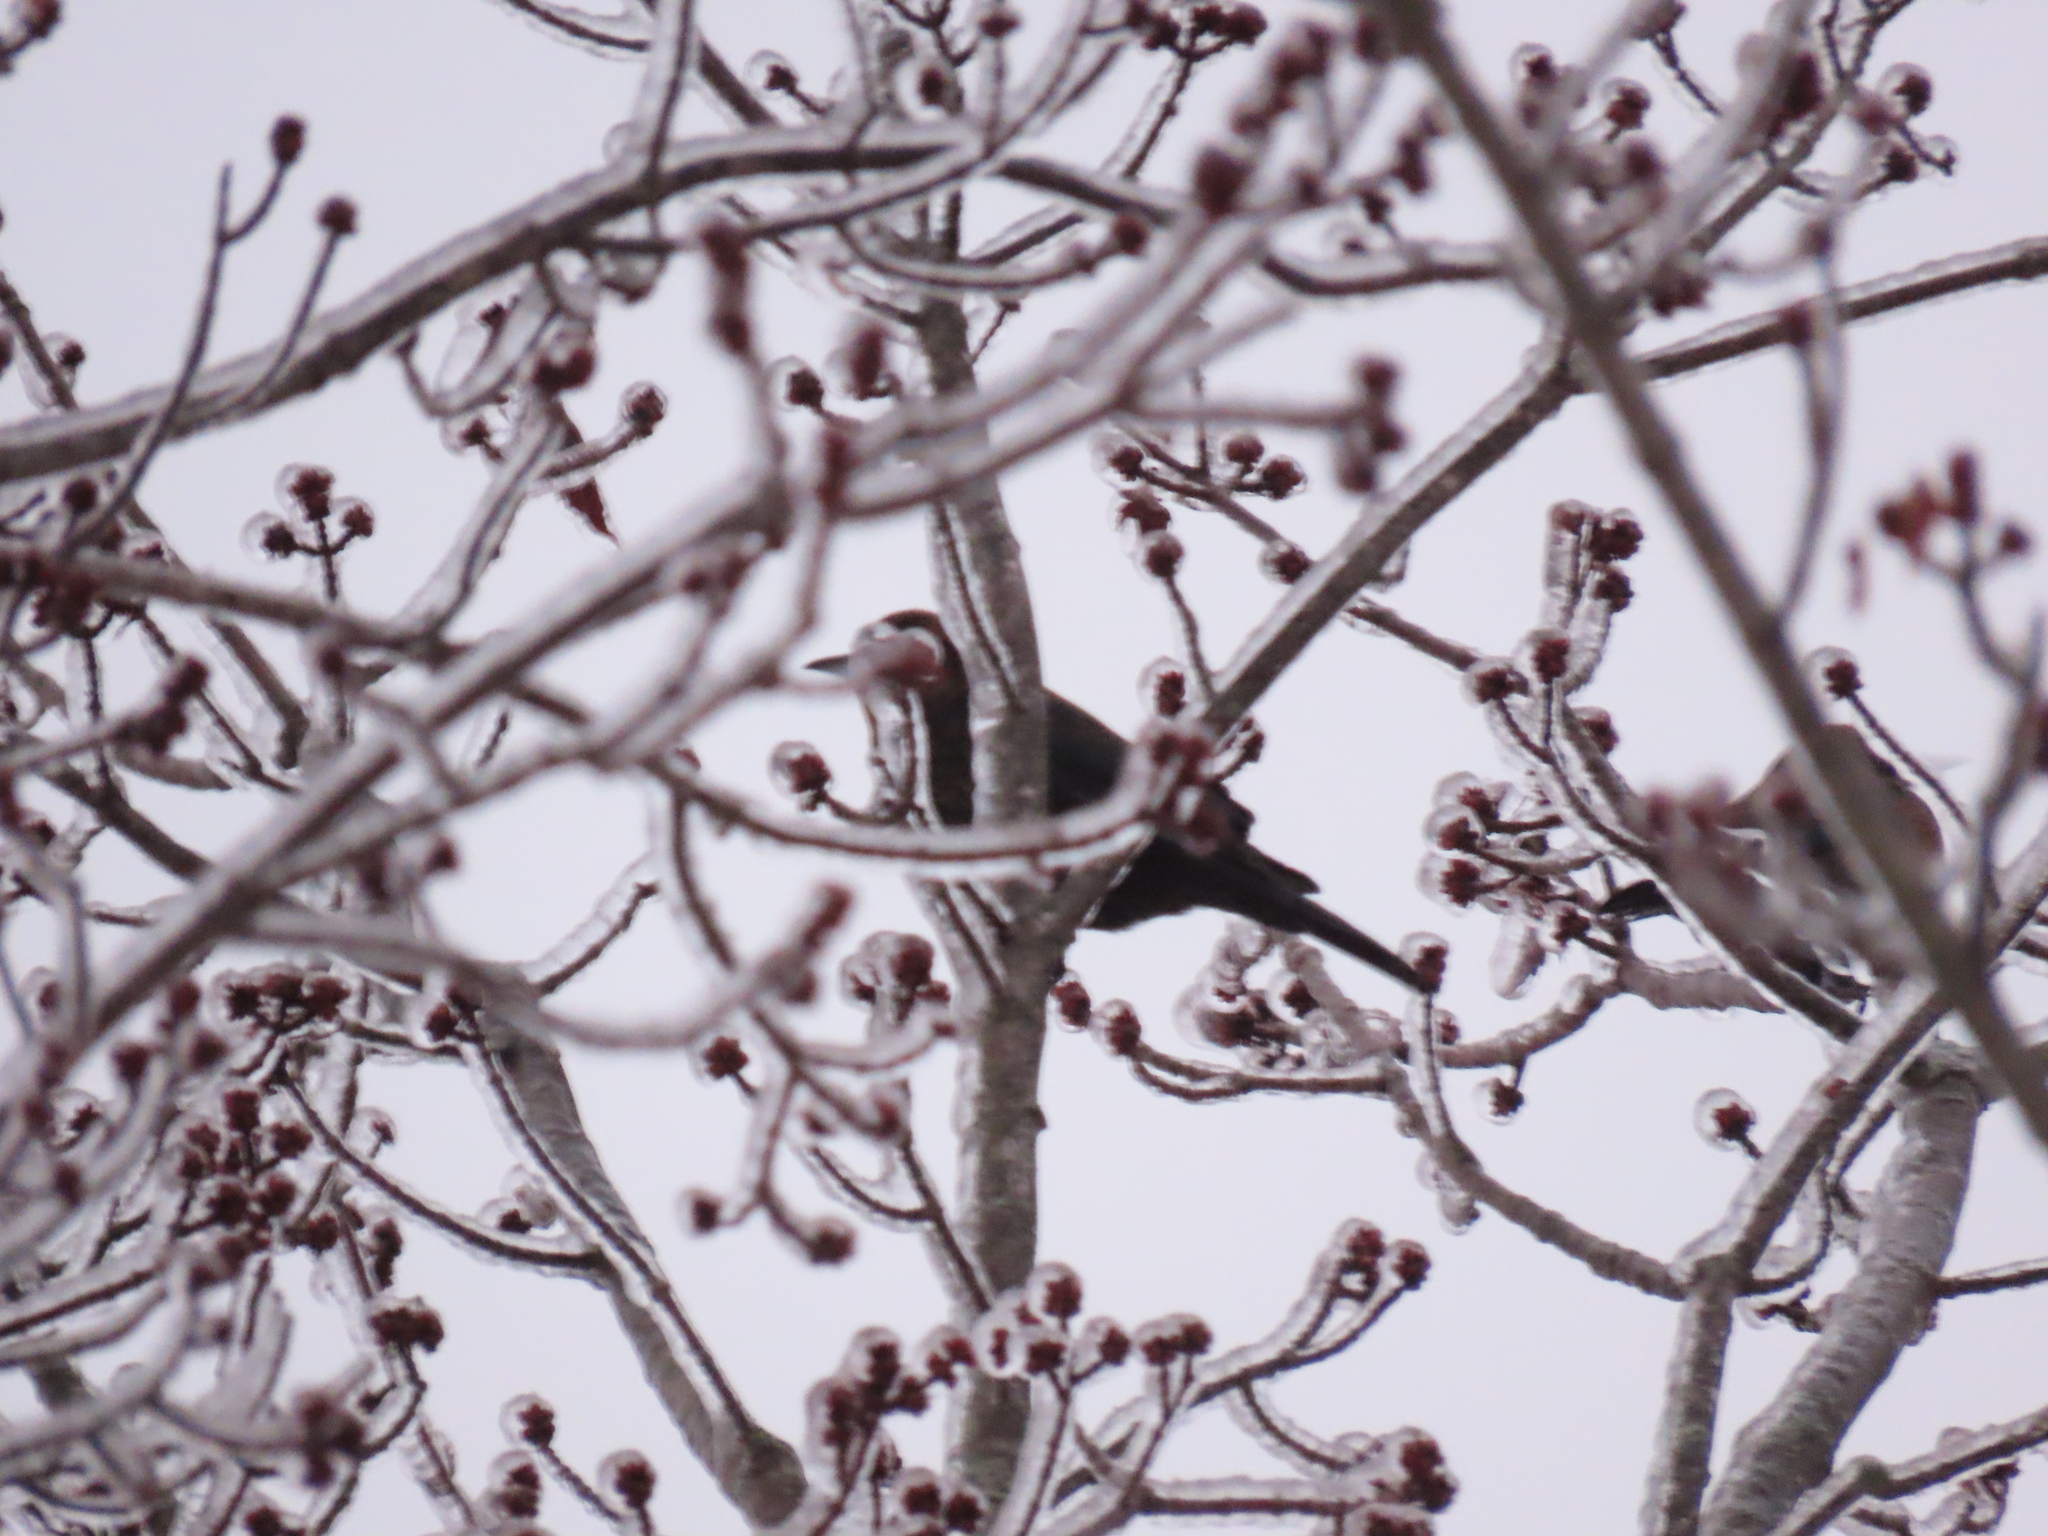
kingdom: Animalia
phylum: Chordata
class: Aves
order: Passeriformes
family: Icteridae
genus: Euphagus
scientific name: Euphagus carolinus
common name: Rusty blackbird
